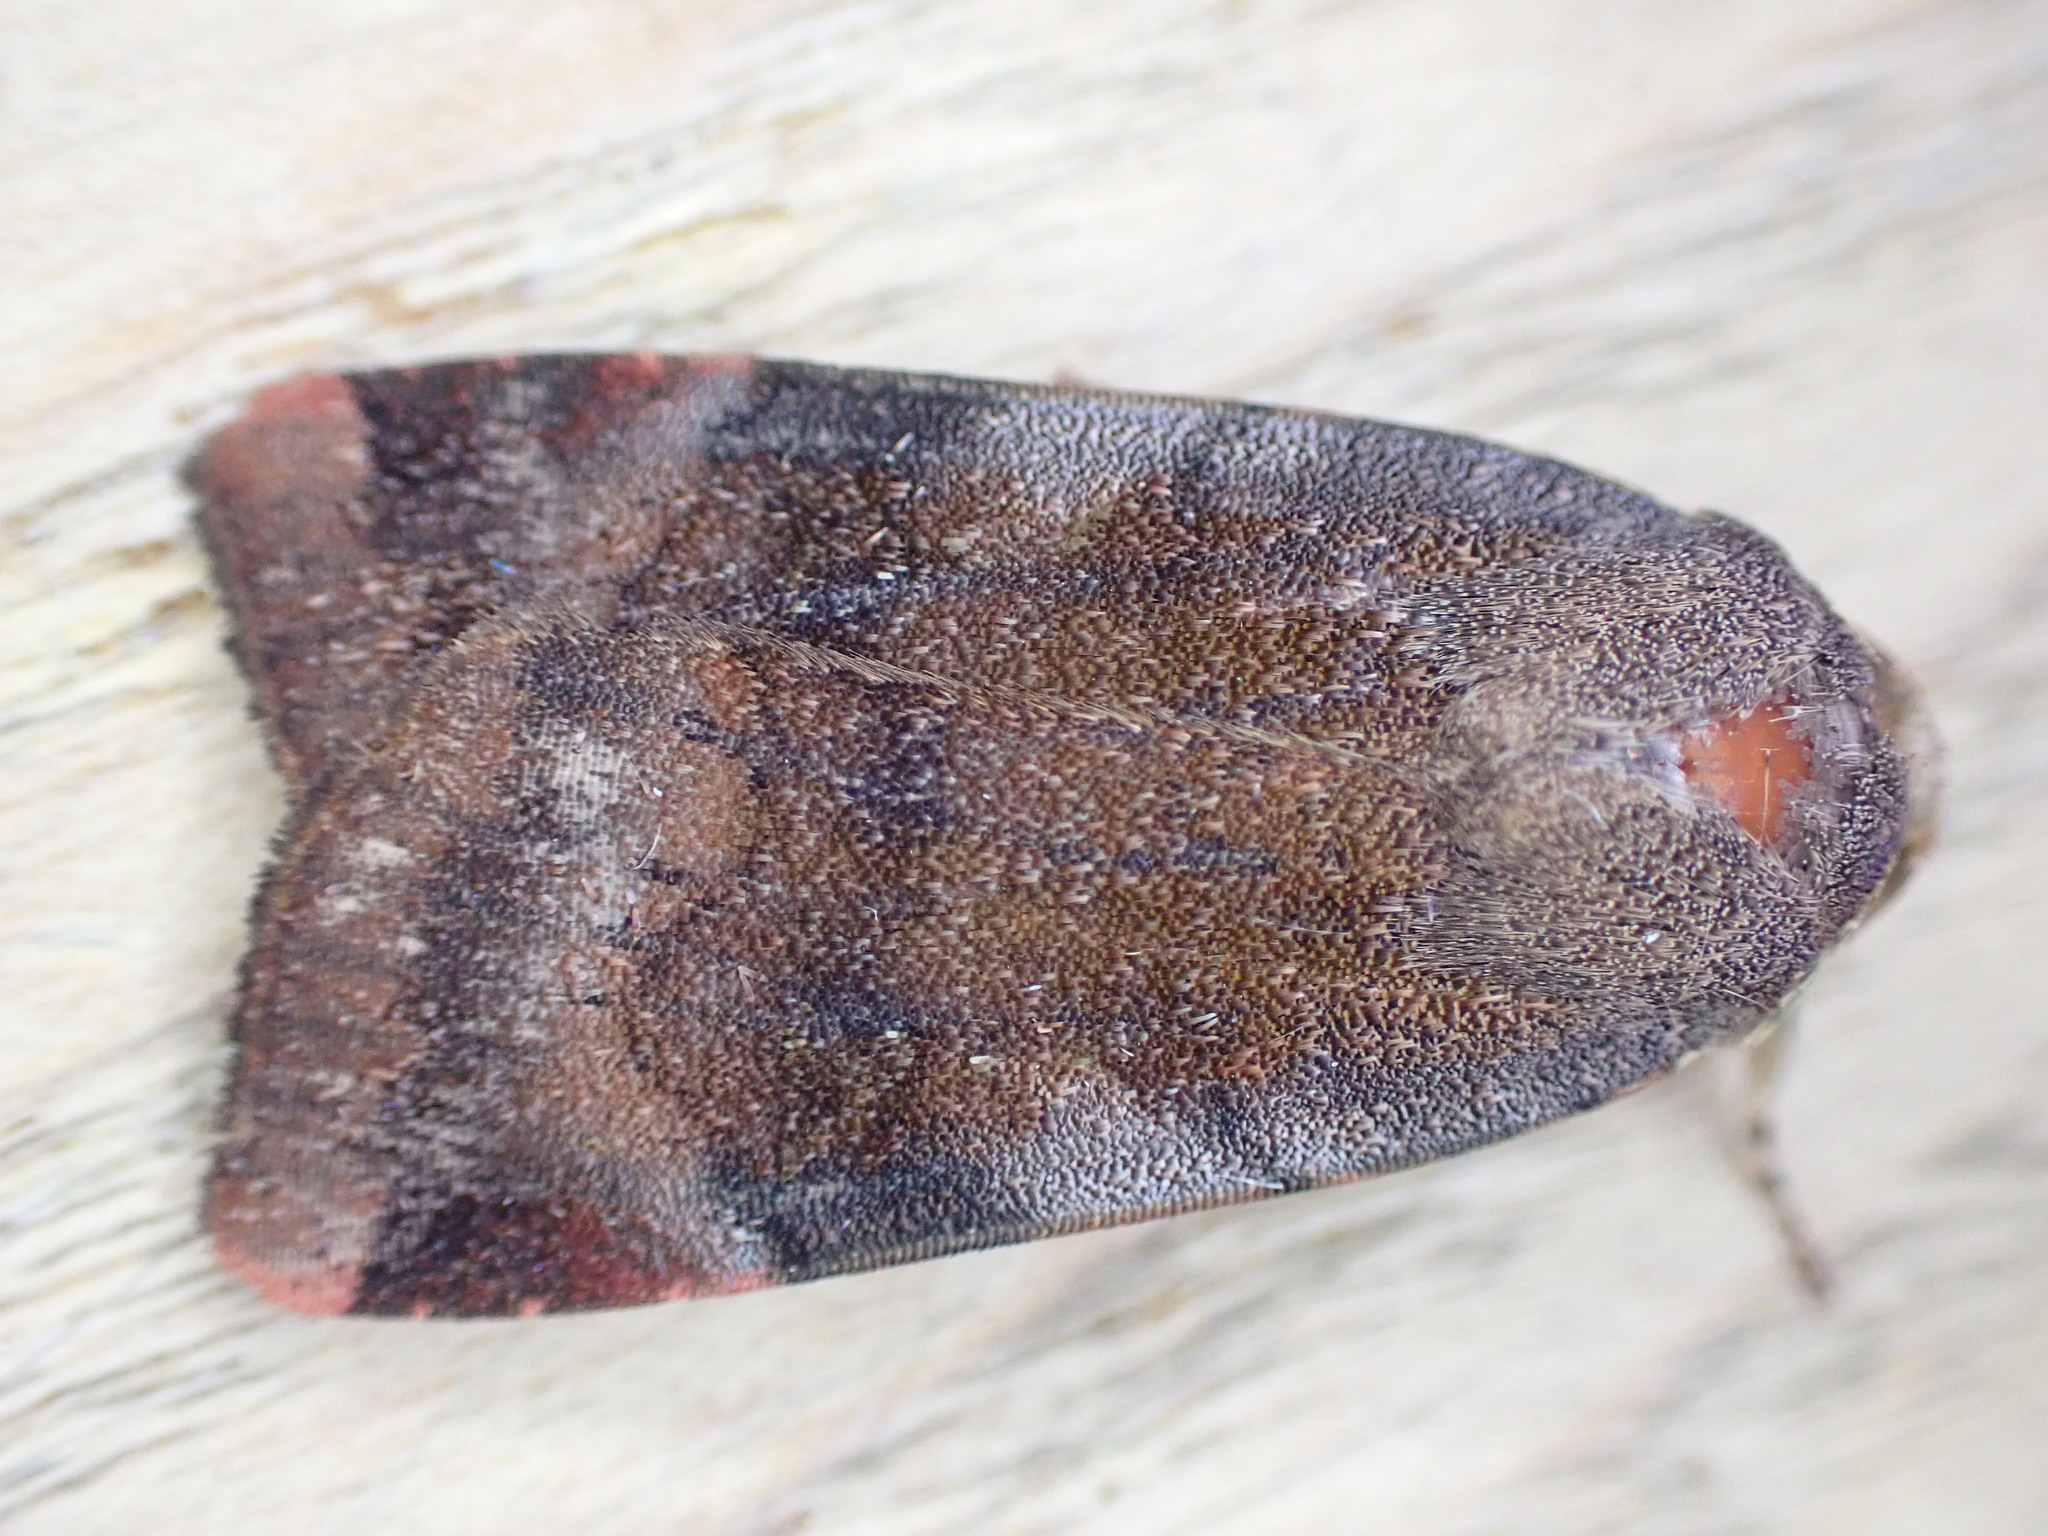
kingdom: Animalia
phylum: Arthropoda
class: Insecta
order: Lepidoptera
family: Noctuidae
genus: Noctua
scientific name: Noctua janthe
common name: Lesser broad-bordered yellow underwing
